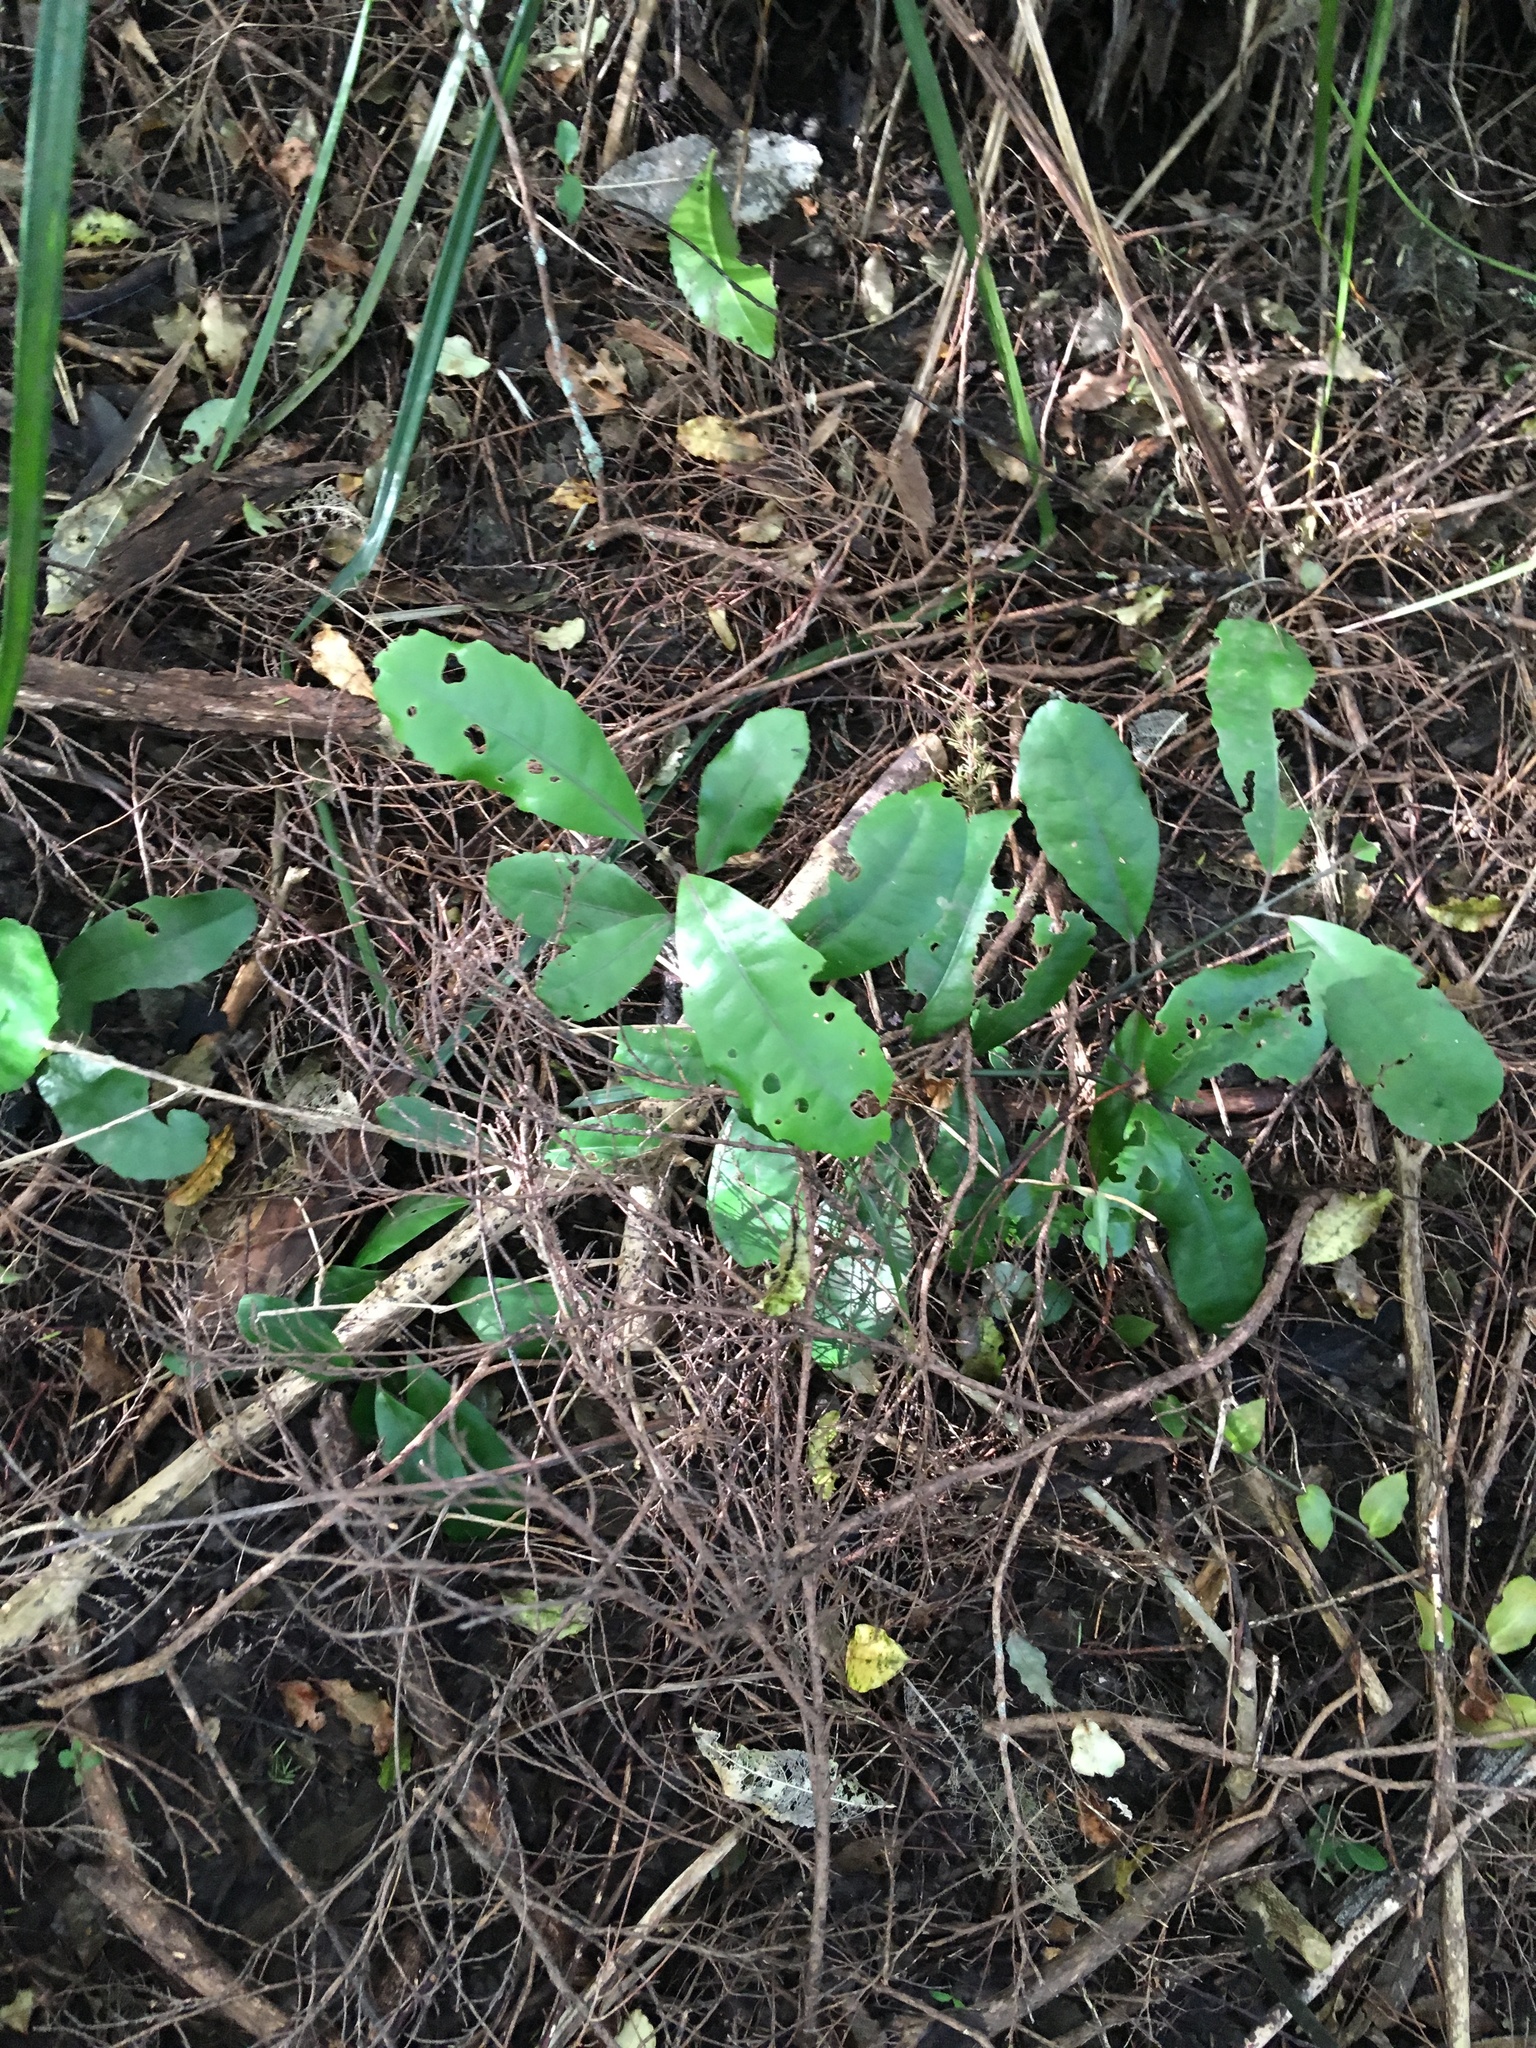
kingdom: Plantae
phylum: Tracheophyta
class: Magnoliopsida
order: Laurales
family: Monimiaceae
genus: Hedycarya
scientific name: Hedycarya arborea
